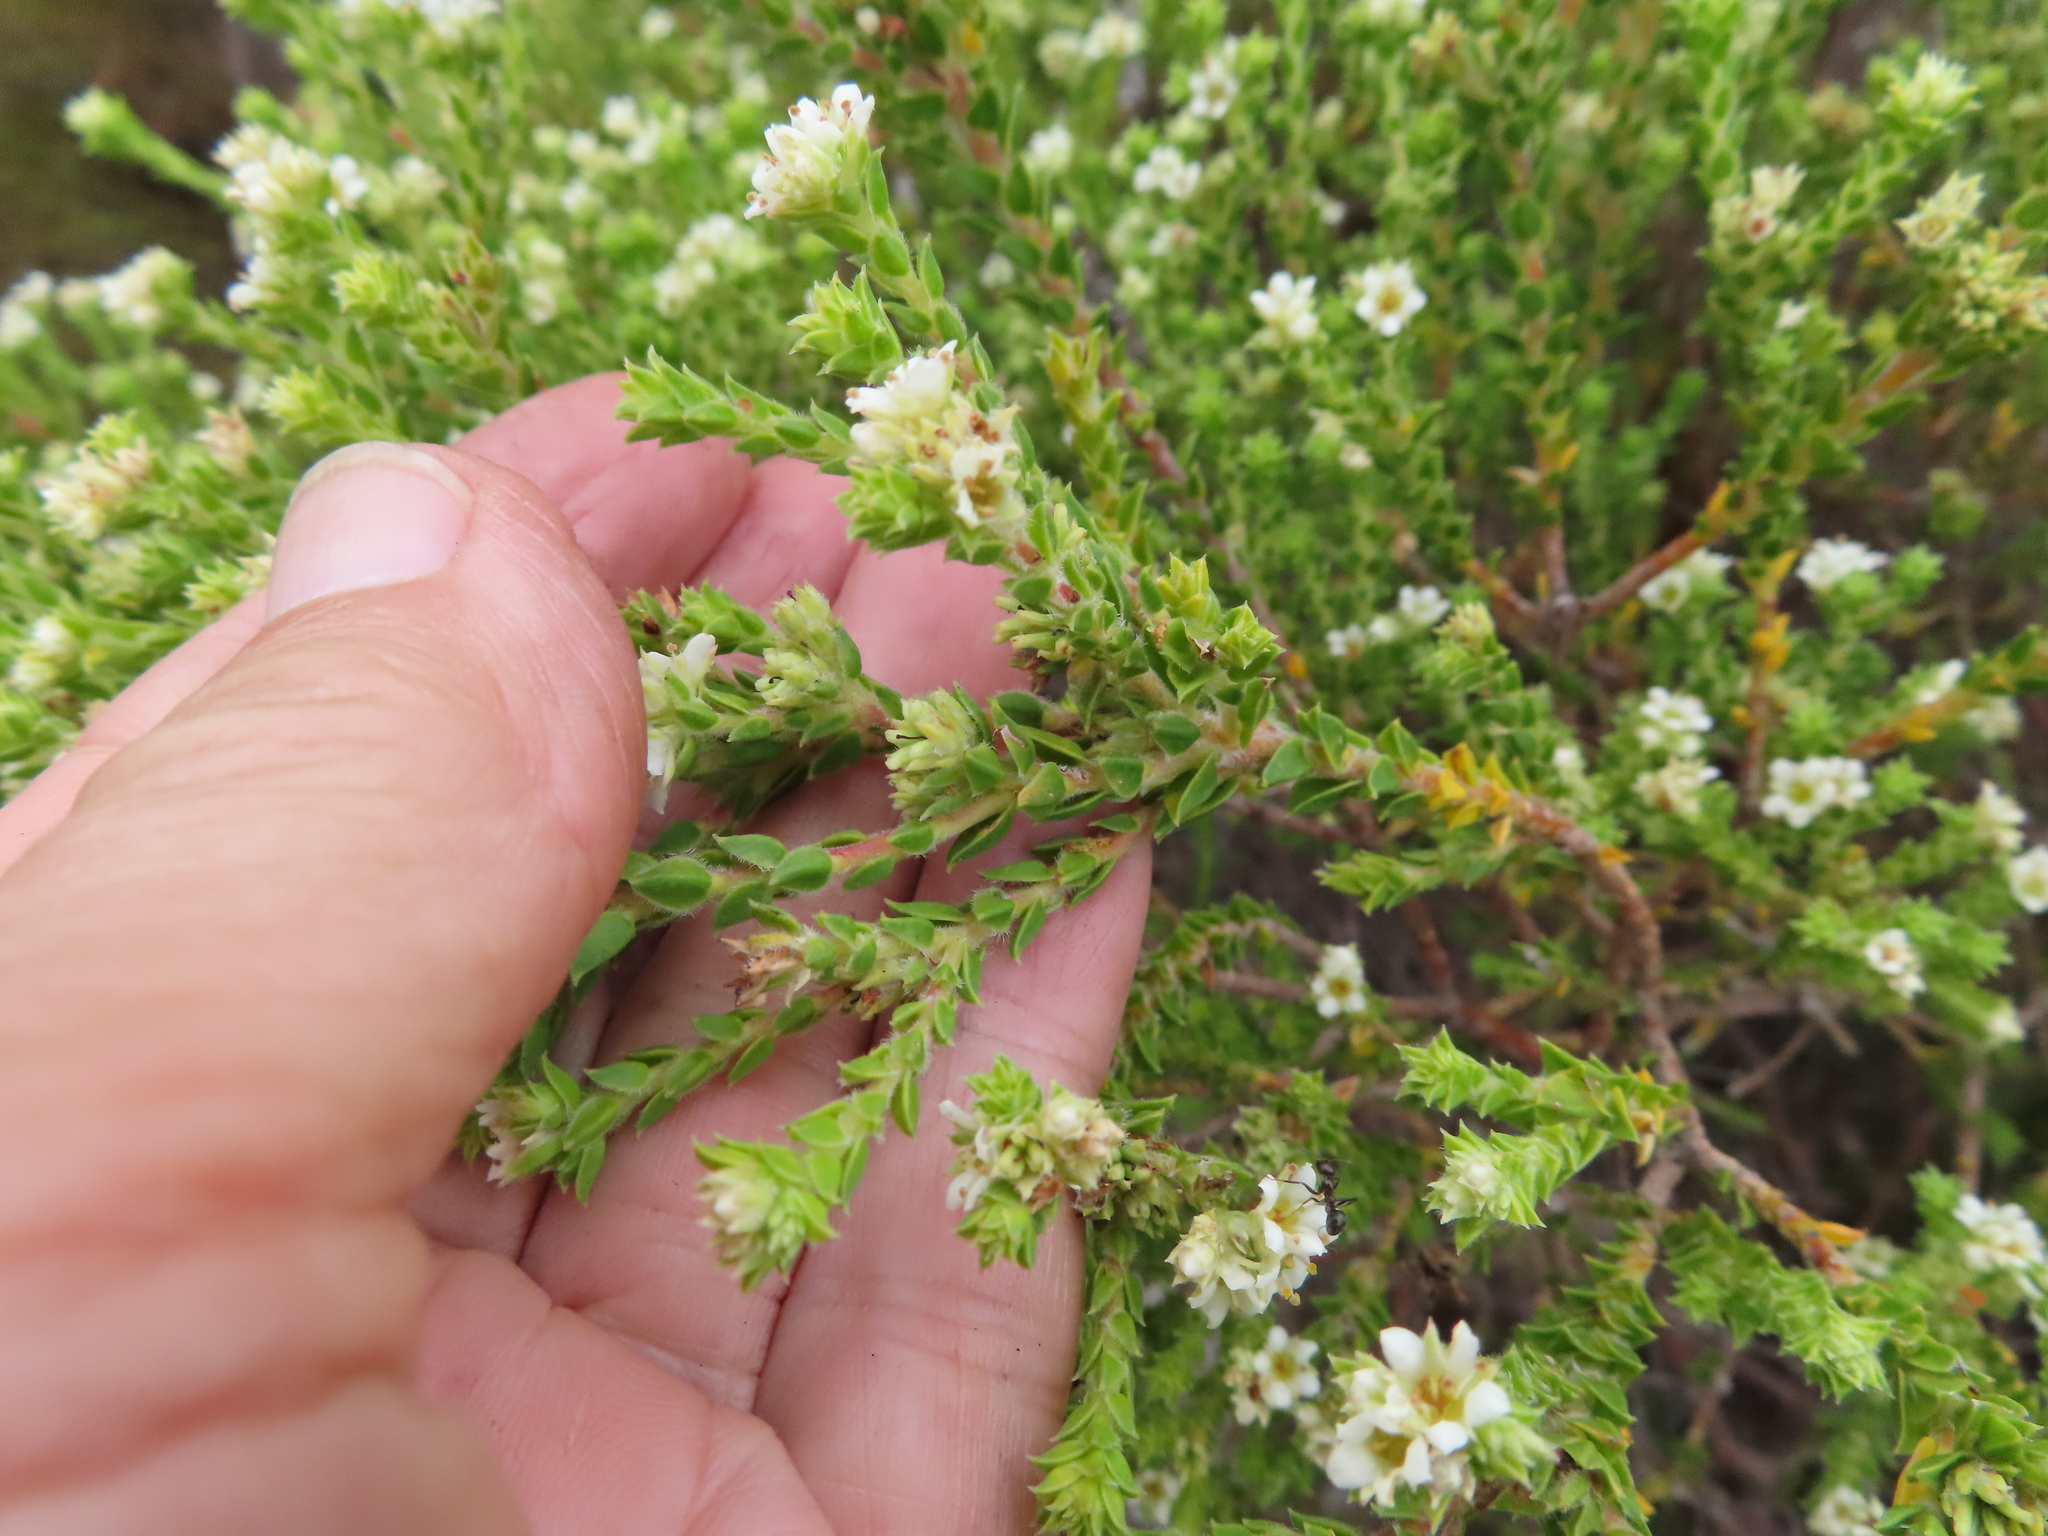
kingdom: Plantae
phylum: Tracheophyta
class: Magnoliopsida
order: Sapindales
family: Rutaceae
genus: Diosma
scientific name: Diosma haelkraalensis
